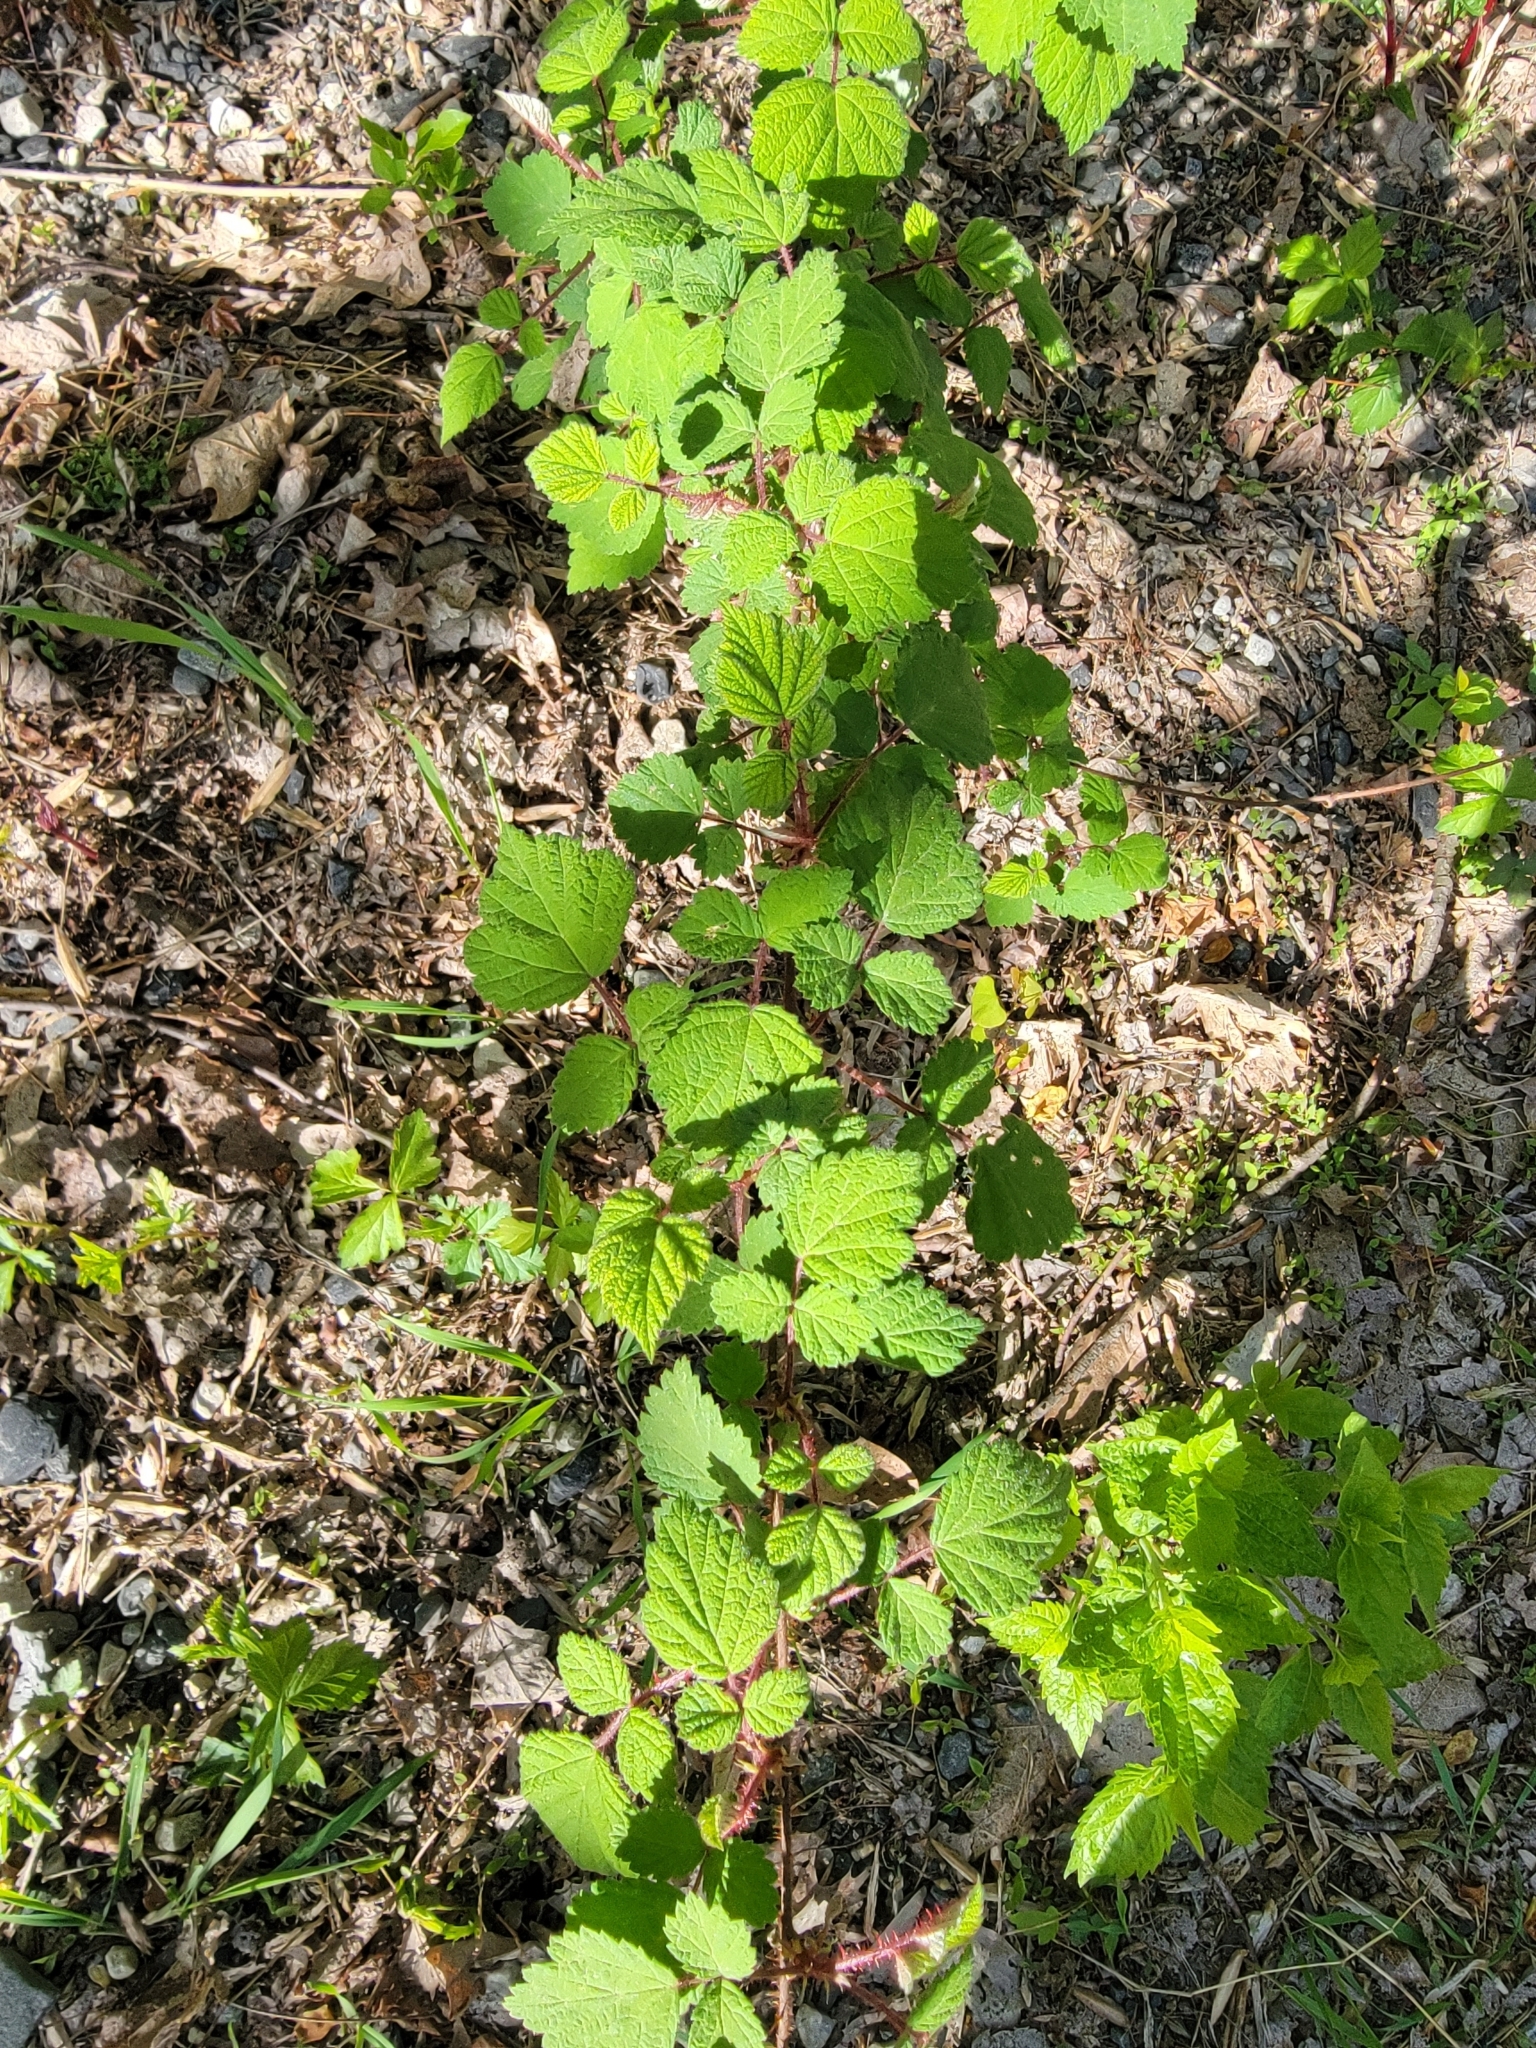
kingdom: Plantae
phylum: Tracheophyta
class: Magnoliopsida
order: Rosales
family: Rosaceae
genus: Rubus
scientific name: Rubus phoenicolasius
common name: Japanese wineberry
